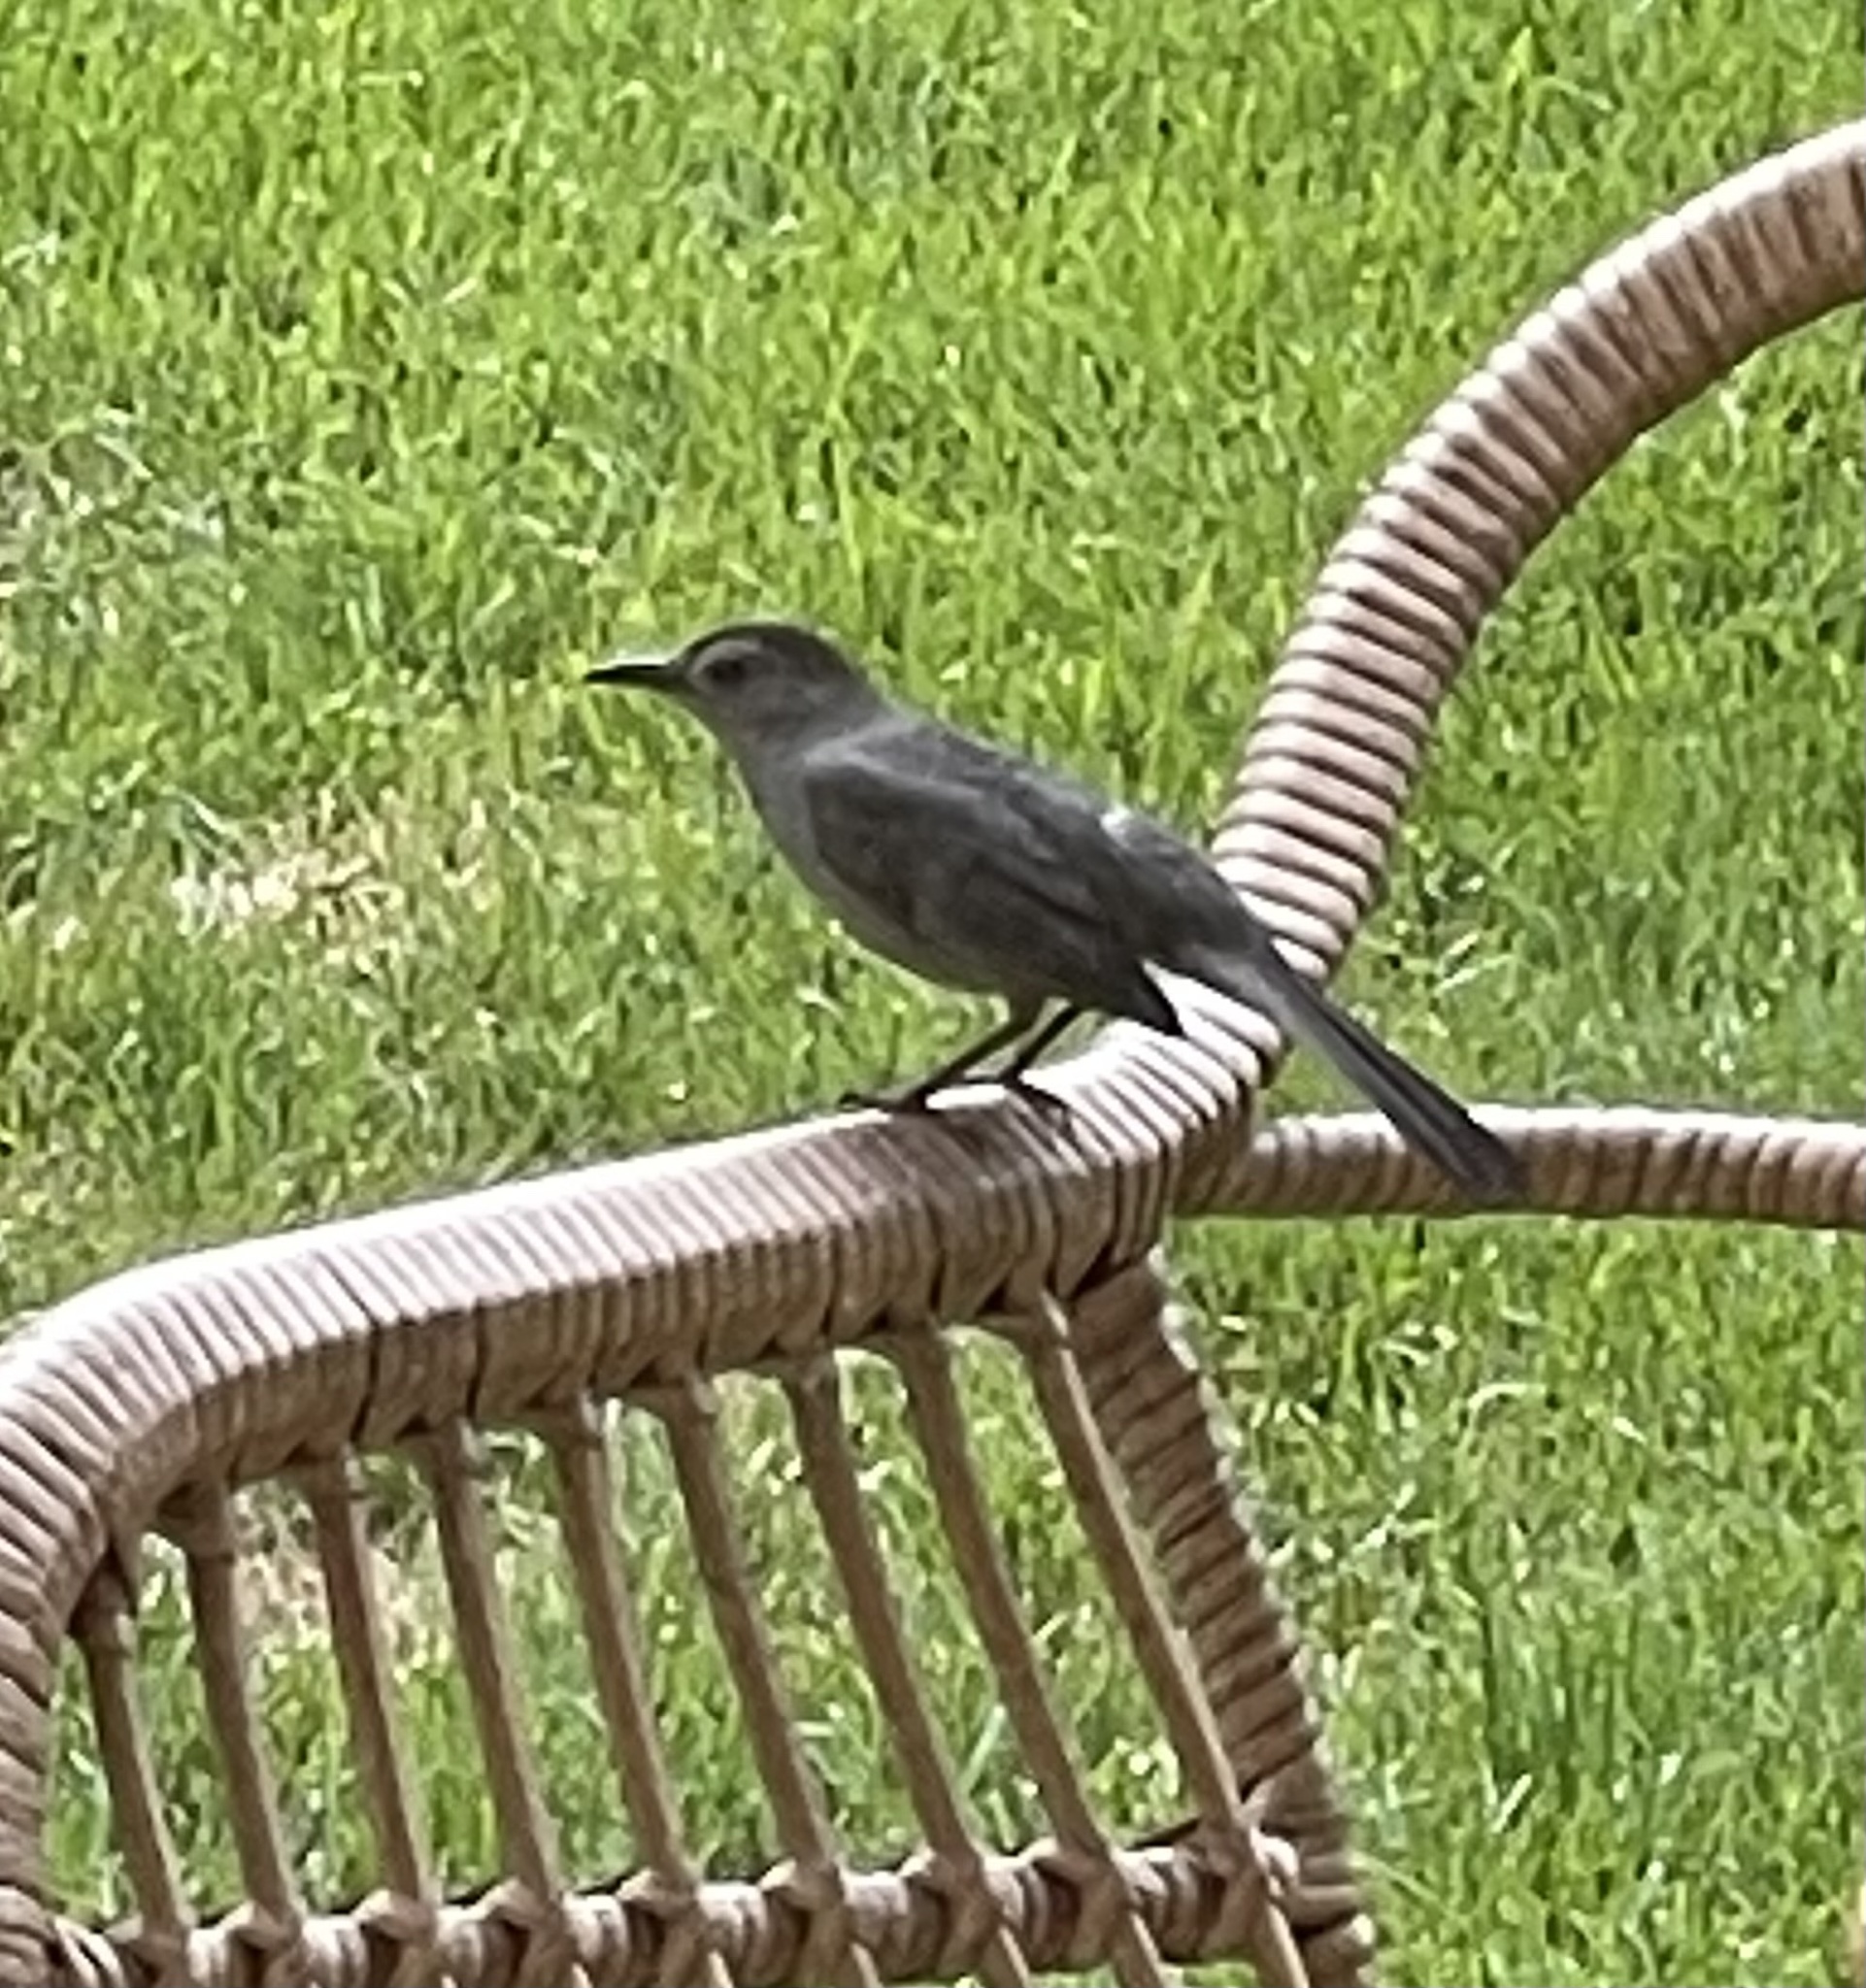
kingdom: Animalia
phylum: Chordata
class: Aves
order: Passeriformes
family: Mimidae
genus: Dumetella
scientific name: Dumetella carolinensis
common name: Gray catbird
